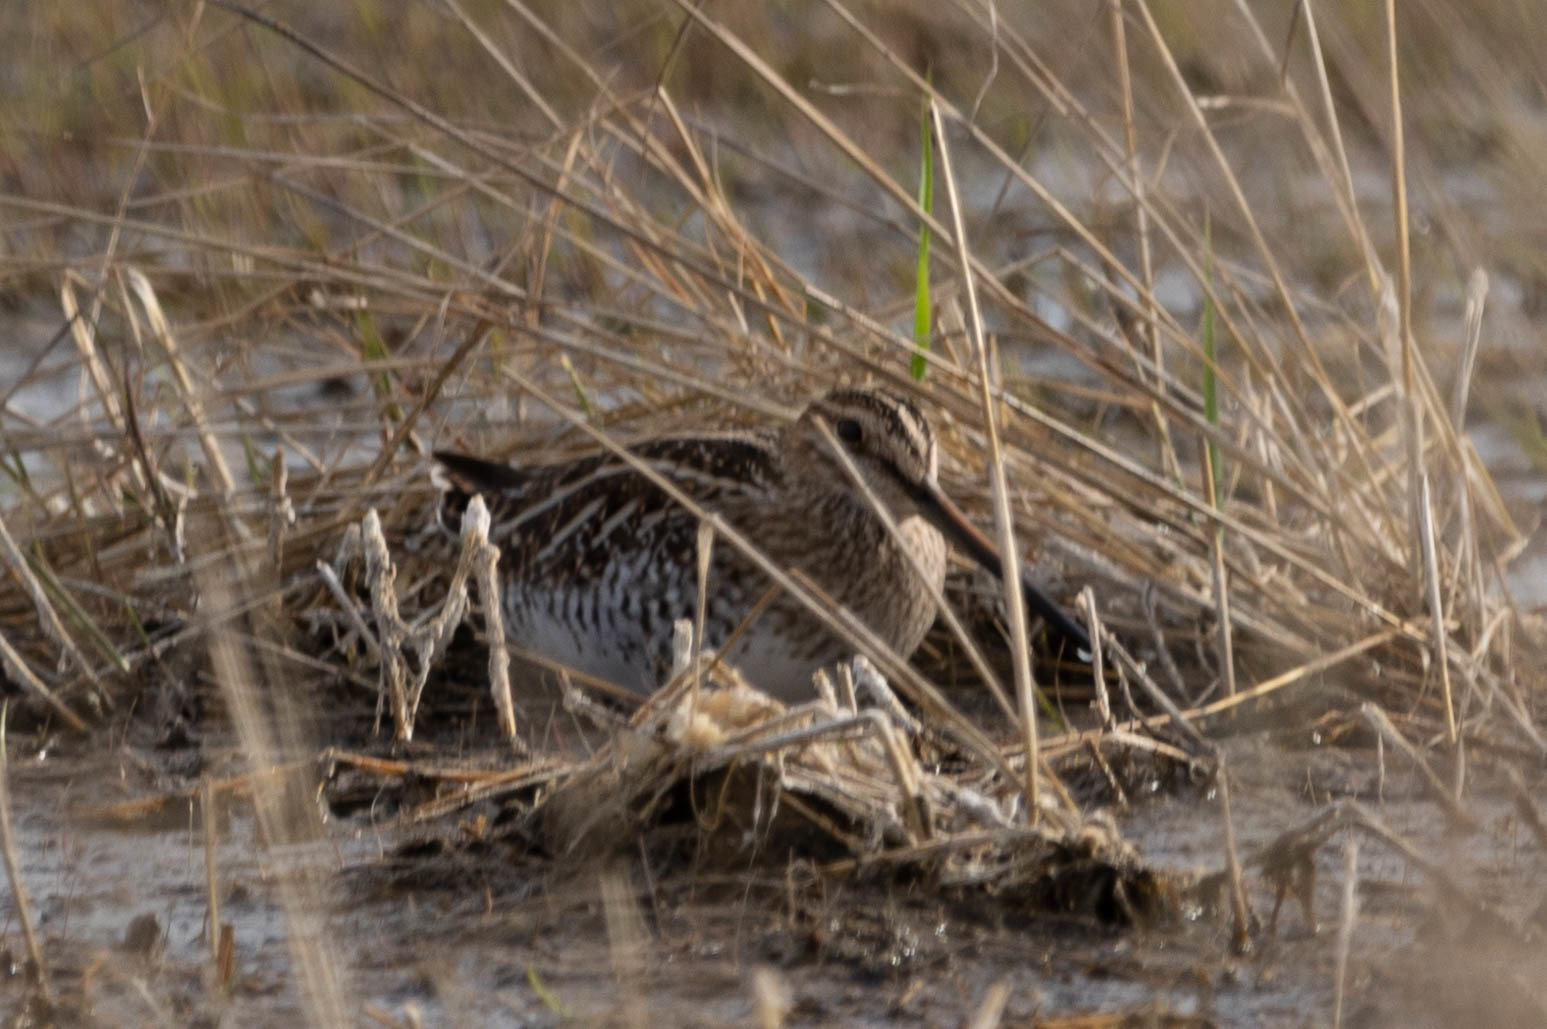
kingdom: Animalia
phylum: Chordata
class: Aves
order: Charadriiformes
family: Scolopacidae
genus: Gallinago
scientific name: Gallinago delicata
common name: Wilson's snipe
